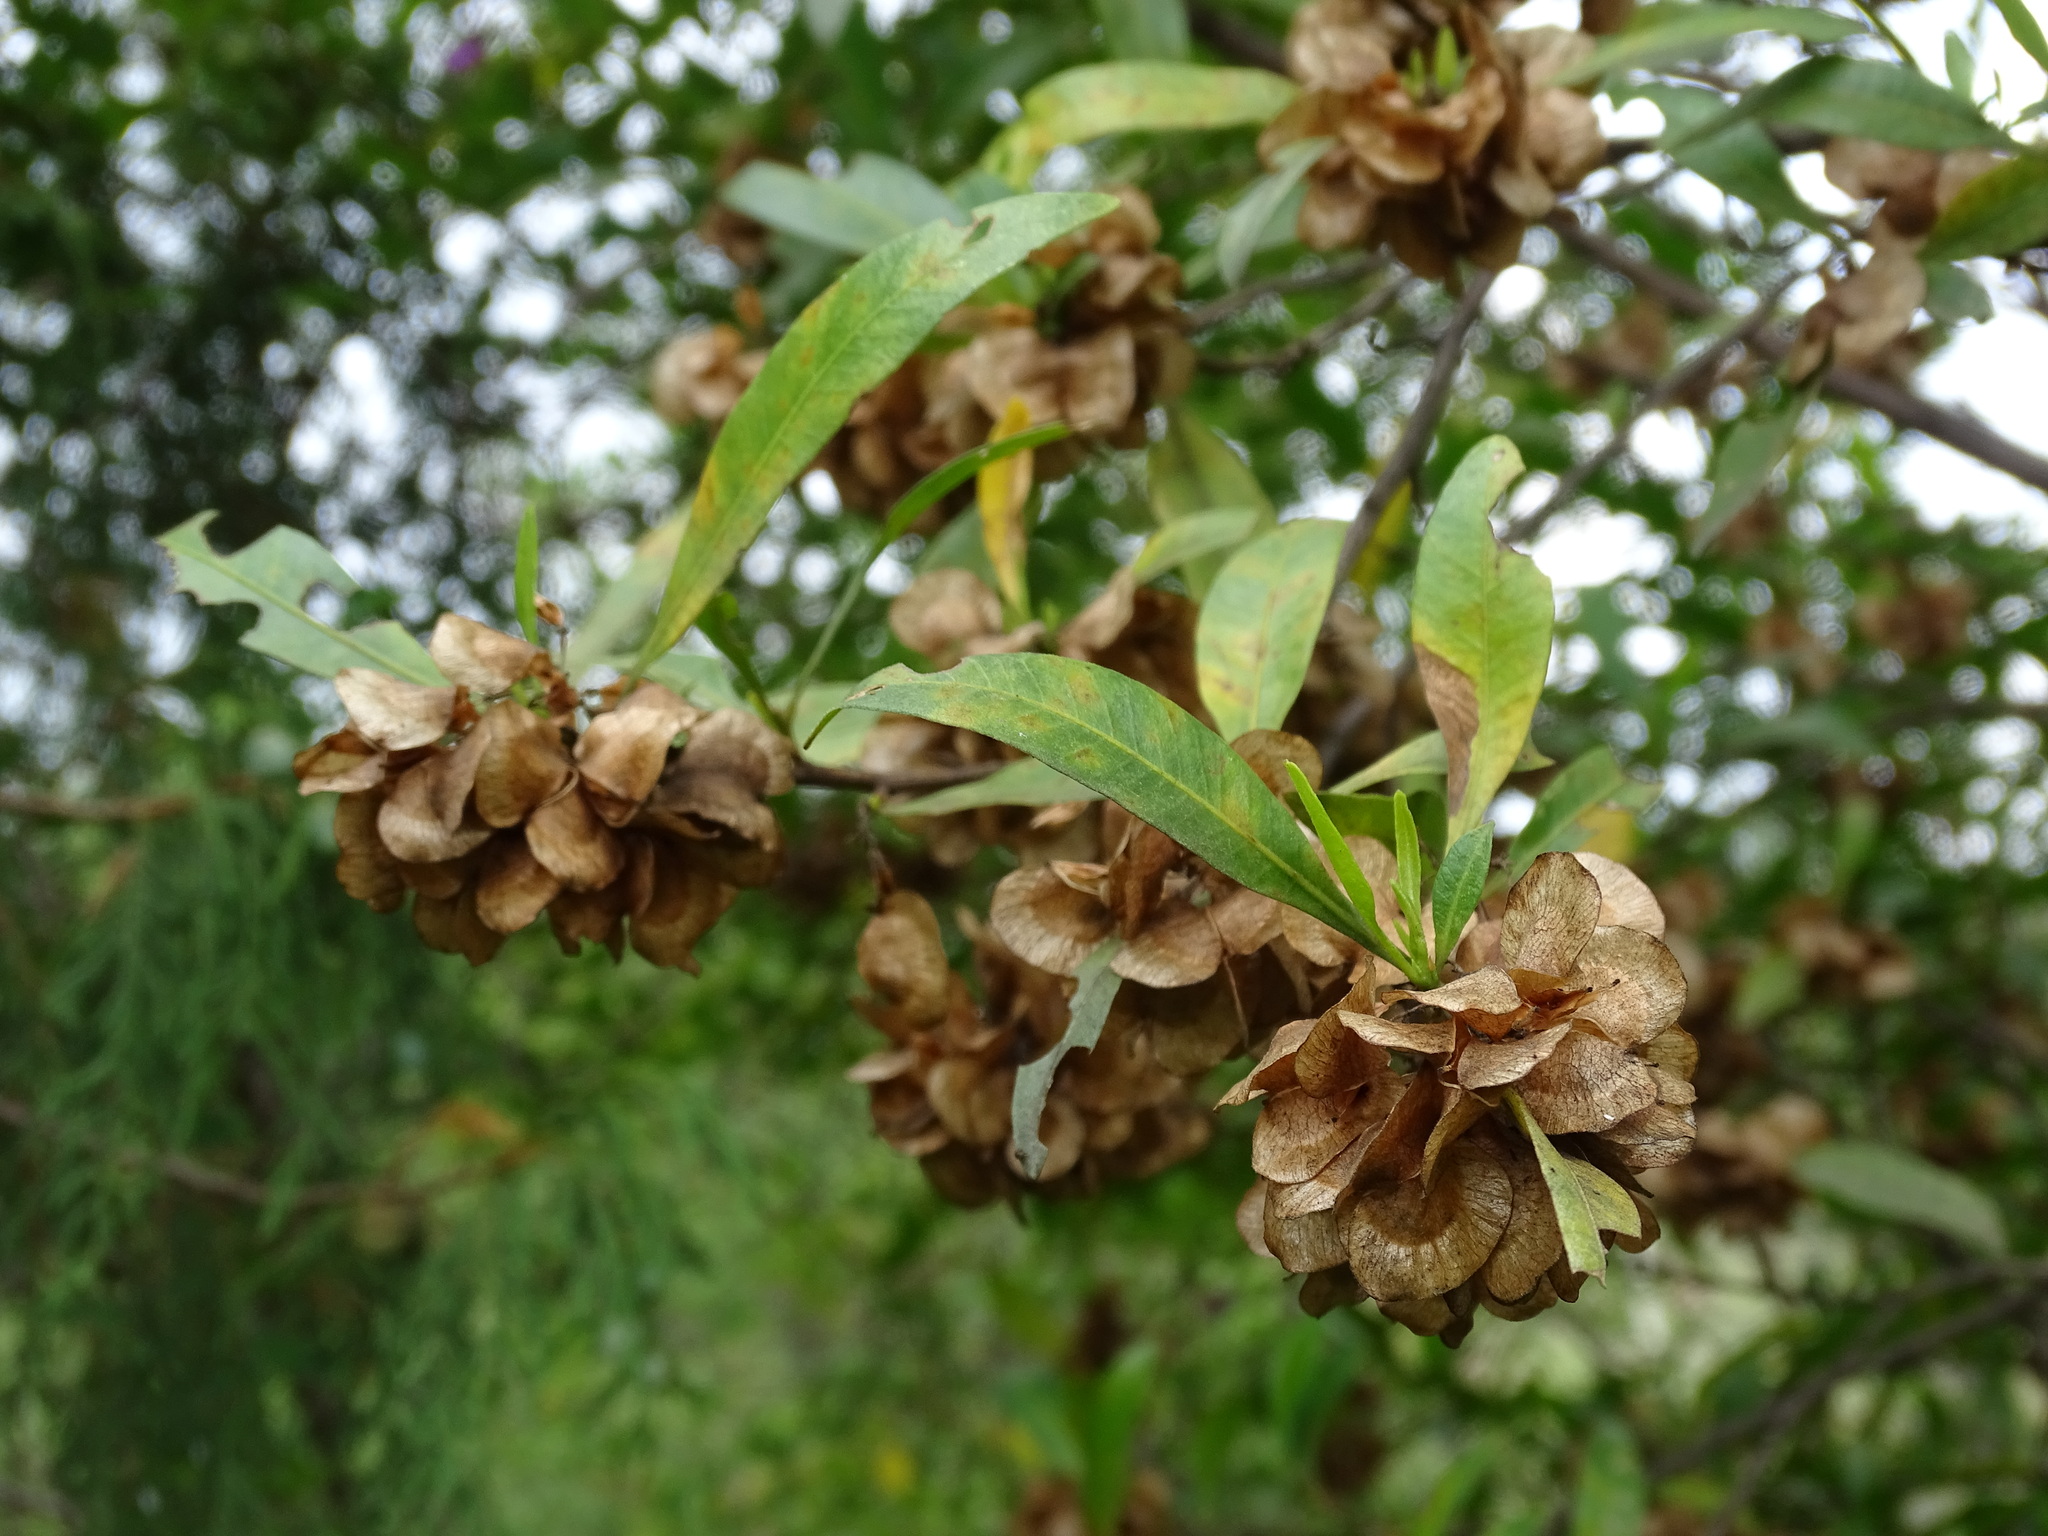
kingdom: Plantae
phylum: Tracheophyta
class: Magnoliopsida
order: Sapindales
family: Sapindaceae
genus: Dodonaea
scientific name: Dodonaea viscosa
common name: Hopbush
